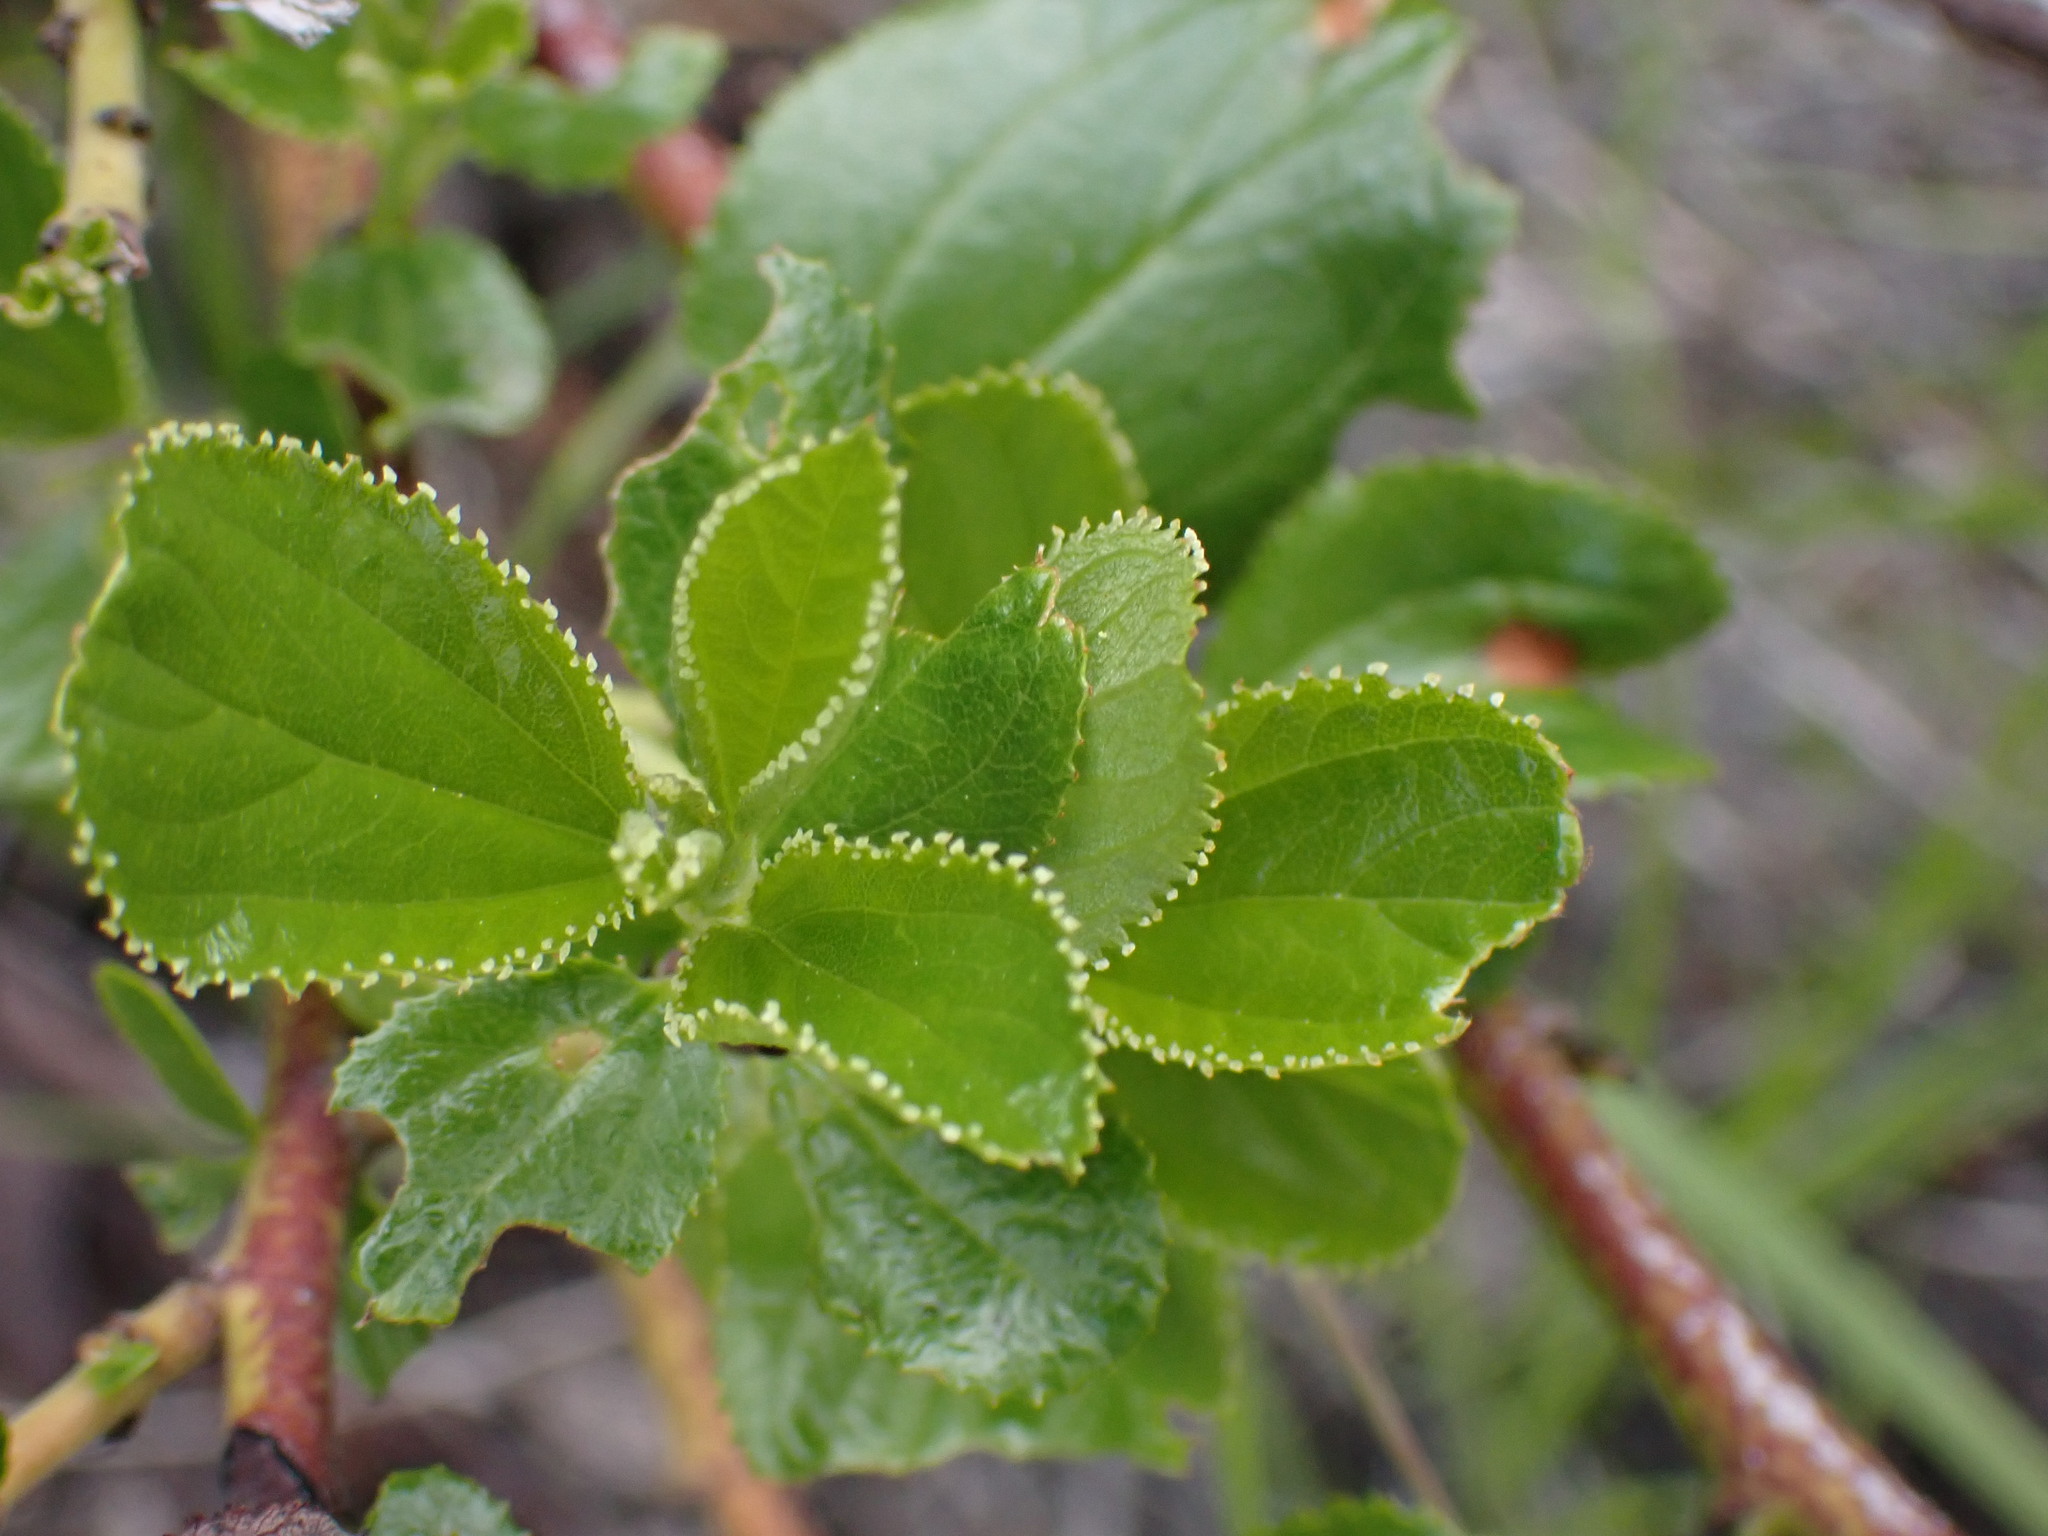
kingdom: Plantae
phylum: Tracheophyta
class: Magnoliopsida
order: Rosales
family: Rhamnaceae
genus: Ceanothus
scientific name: Ceanothus velutinus
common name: Snowbrush
